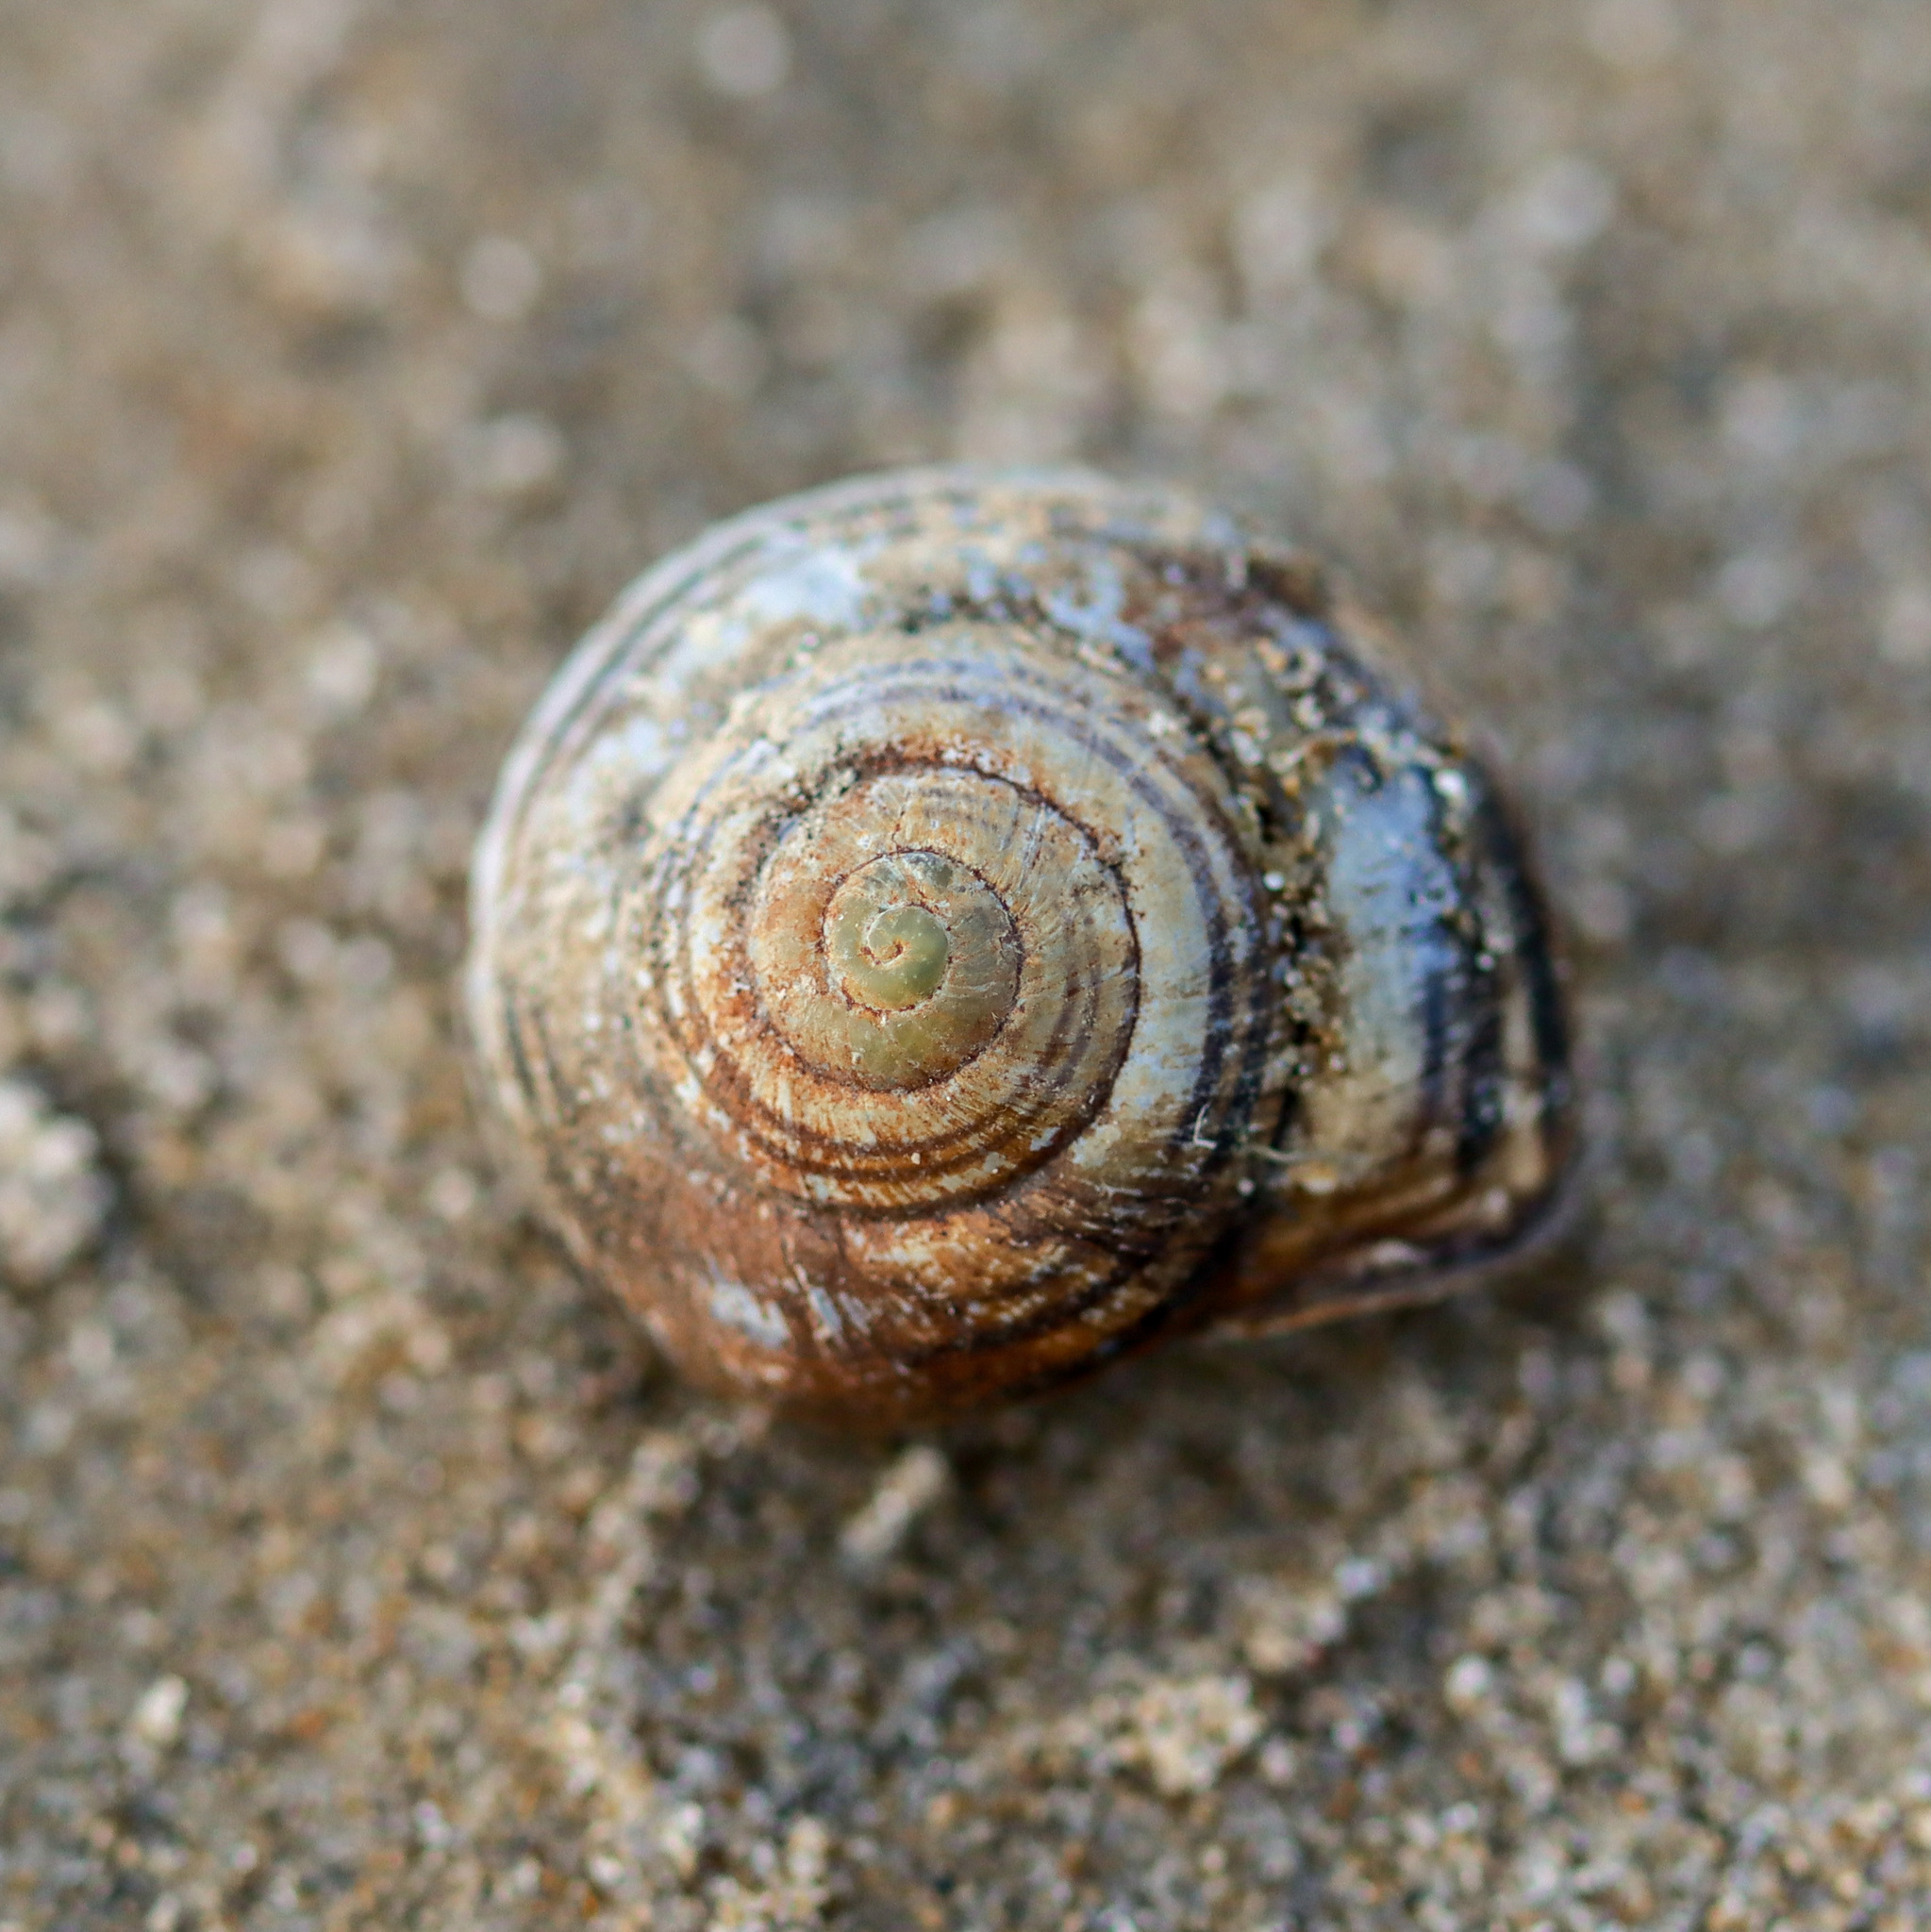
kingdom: Animalia
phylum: Mollusca
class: Gastropoda
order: Stylommatophora
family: Helicidae
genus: Cepaea
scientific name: Cepaea nemoralis
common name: Grovesnail
